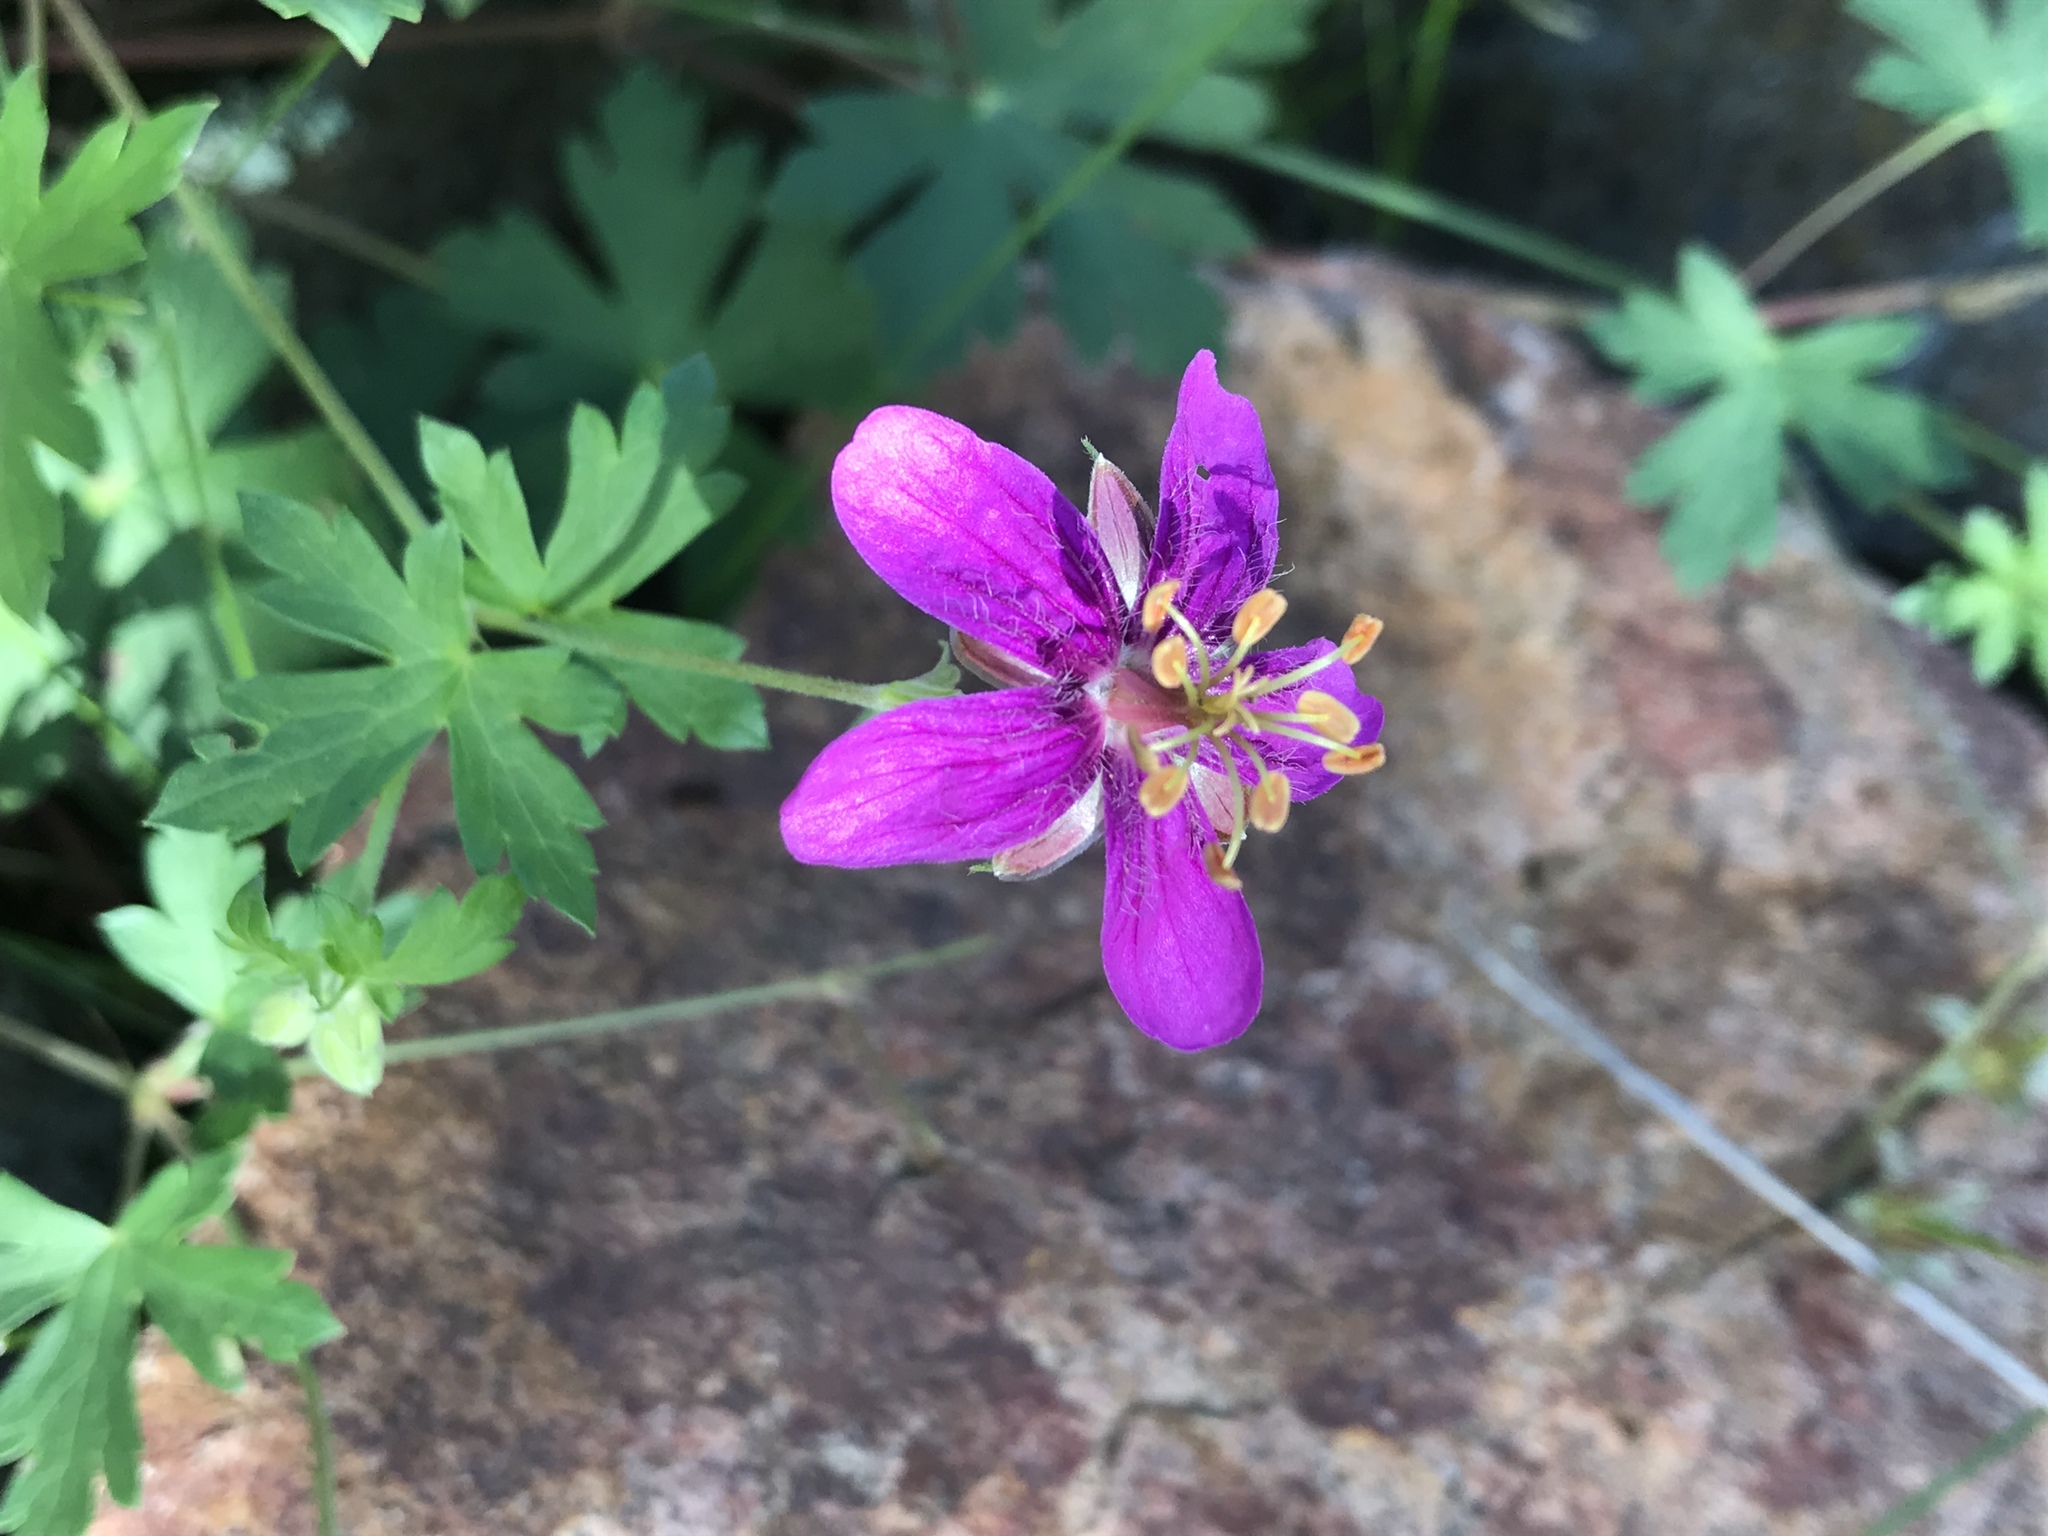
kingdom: Plantae
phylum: Tracheophyta
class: Magnoliopsida
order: Geraniales
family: Geraniaceae
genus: Geranium
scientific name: Geranium caespitosum
